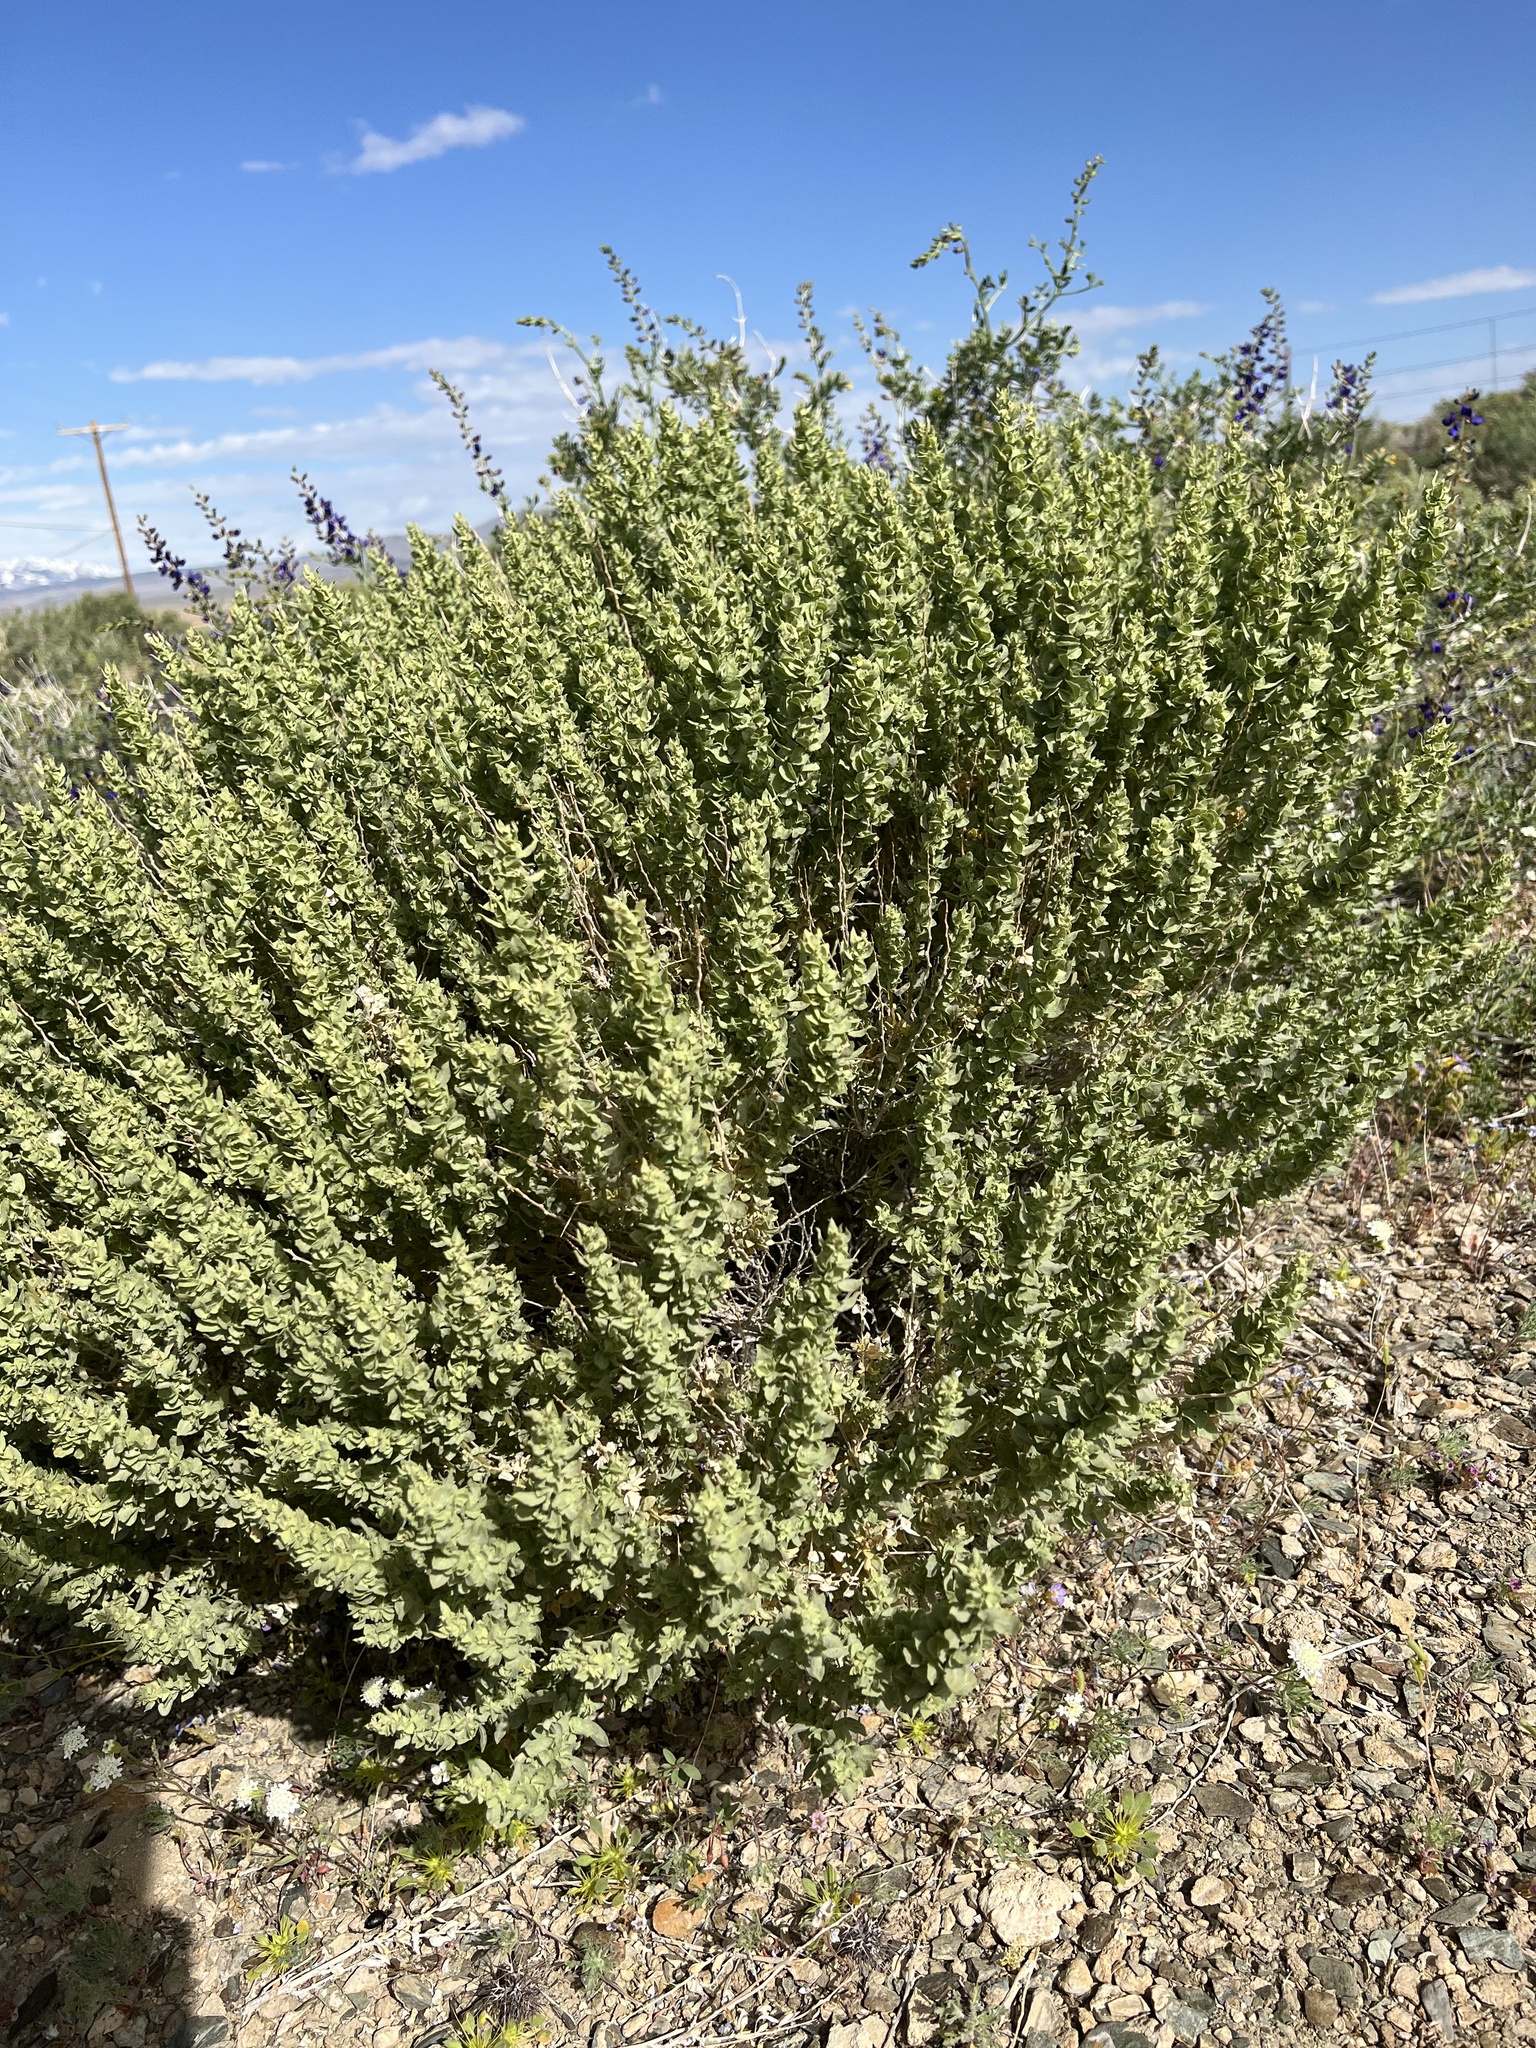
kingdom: Plantae
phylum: Tracheophyta
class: Magnoliopsida
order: Caryophyllales
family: Amaranthaceae
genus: Atriplex
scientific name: Atriplex confertifolia
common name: Shadscale
